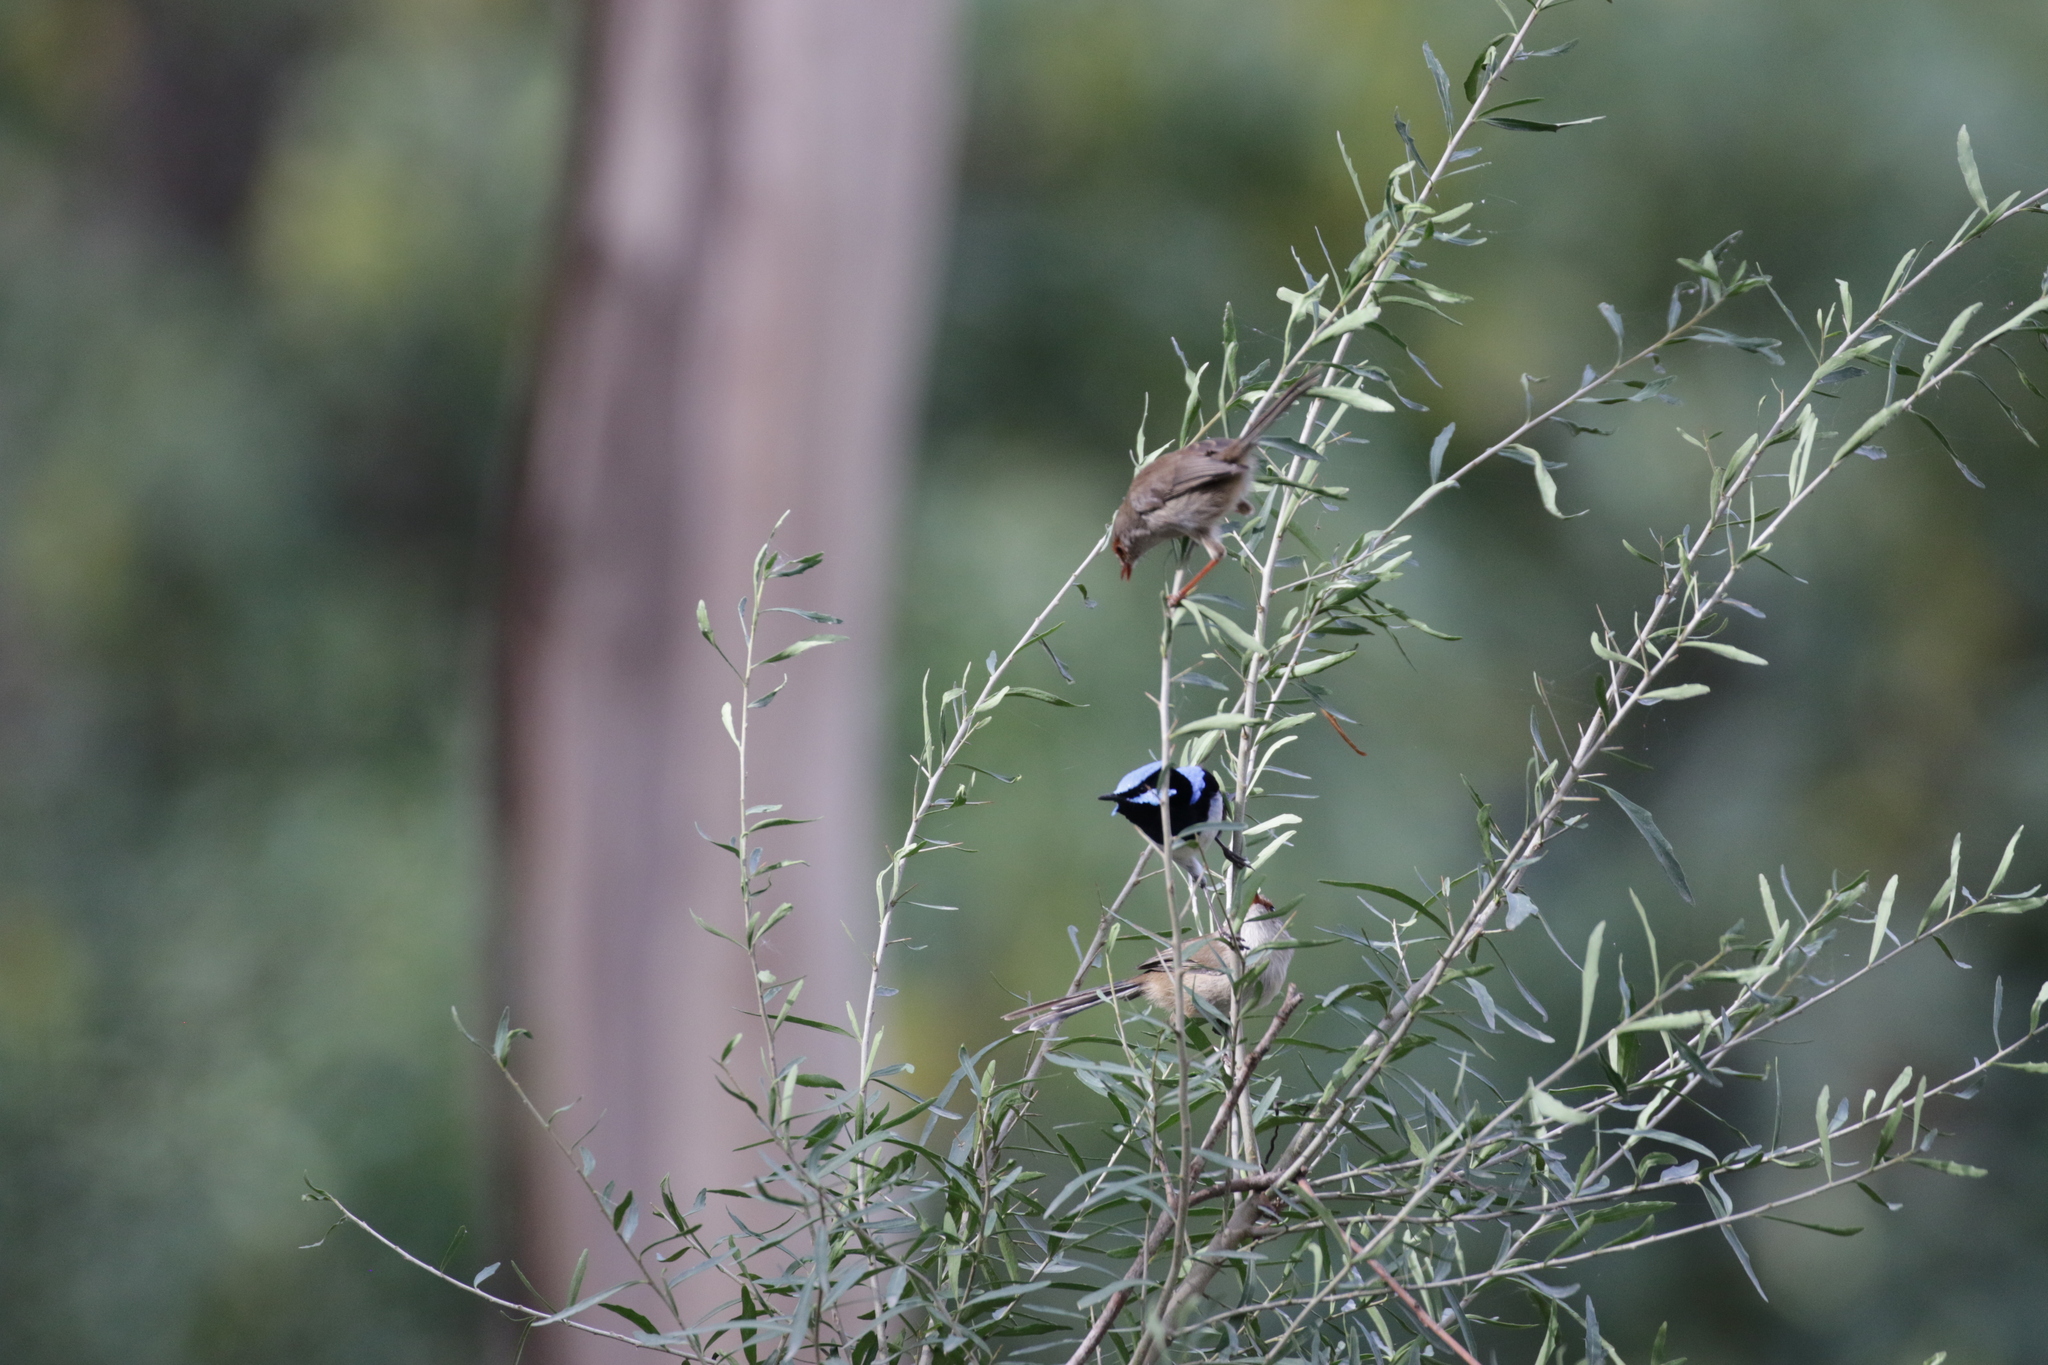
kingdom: Animalia
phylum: Chordata
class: Aves
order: Passeriformes
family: Maluridae
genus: Malurus
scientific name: Malurus cyaneus
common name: Superb fairywren
